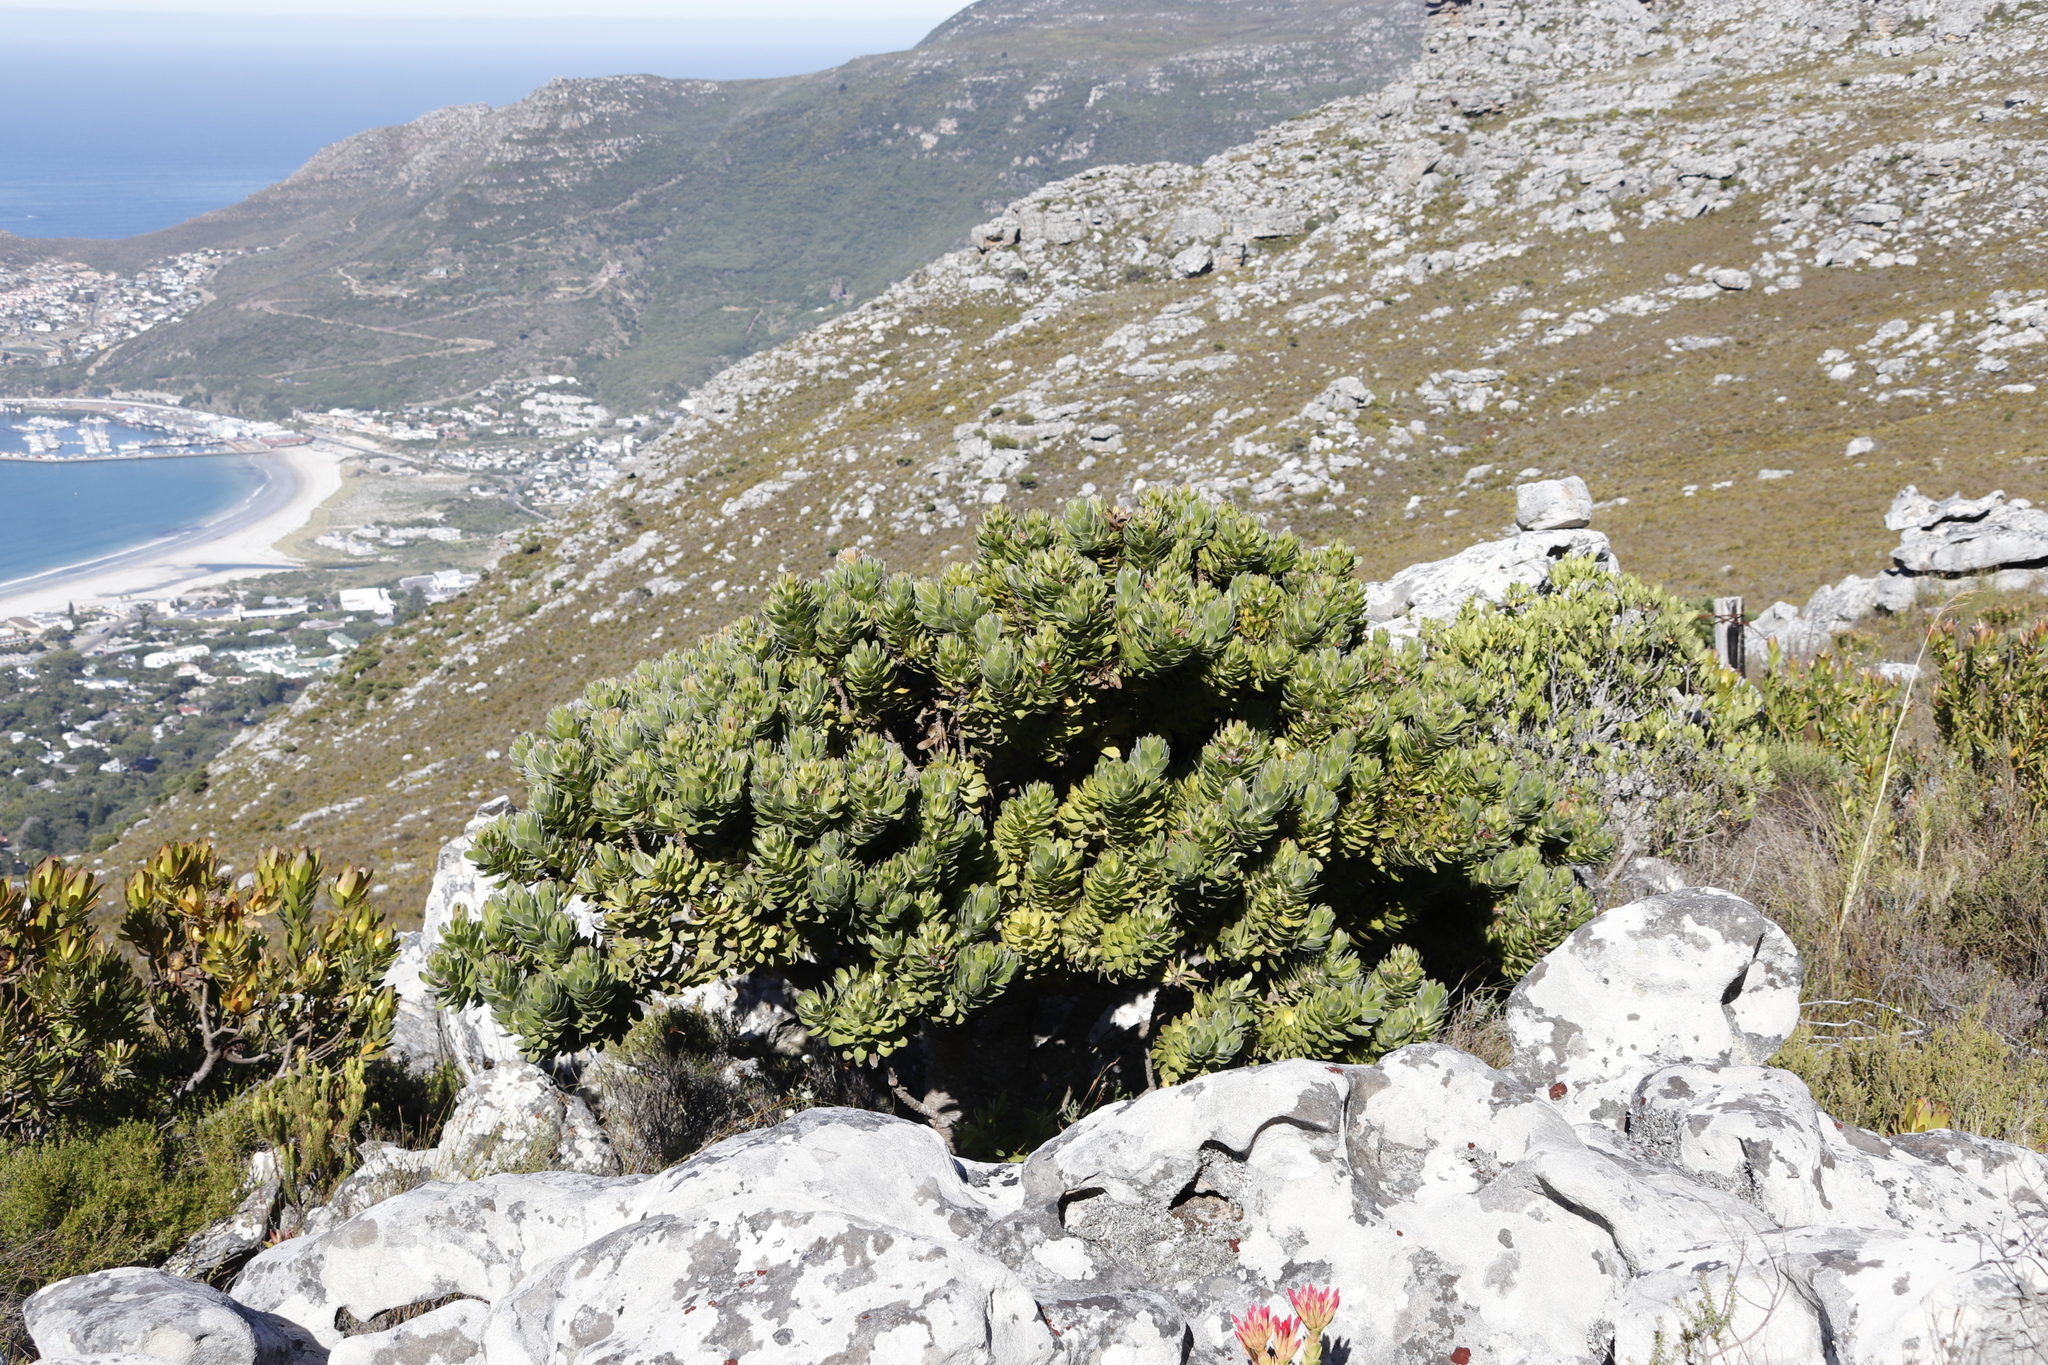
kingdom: Plantae
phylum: Tracheophyta
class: Magnoliopsida
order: Proteales
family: Proteaceae
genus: Mimetes
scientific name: Mimetes fimbriifolius
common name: Fringed bottlebrush
